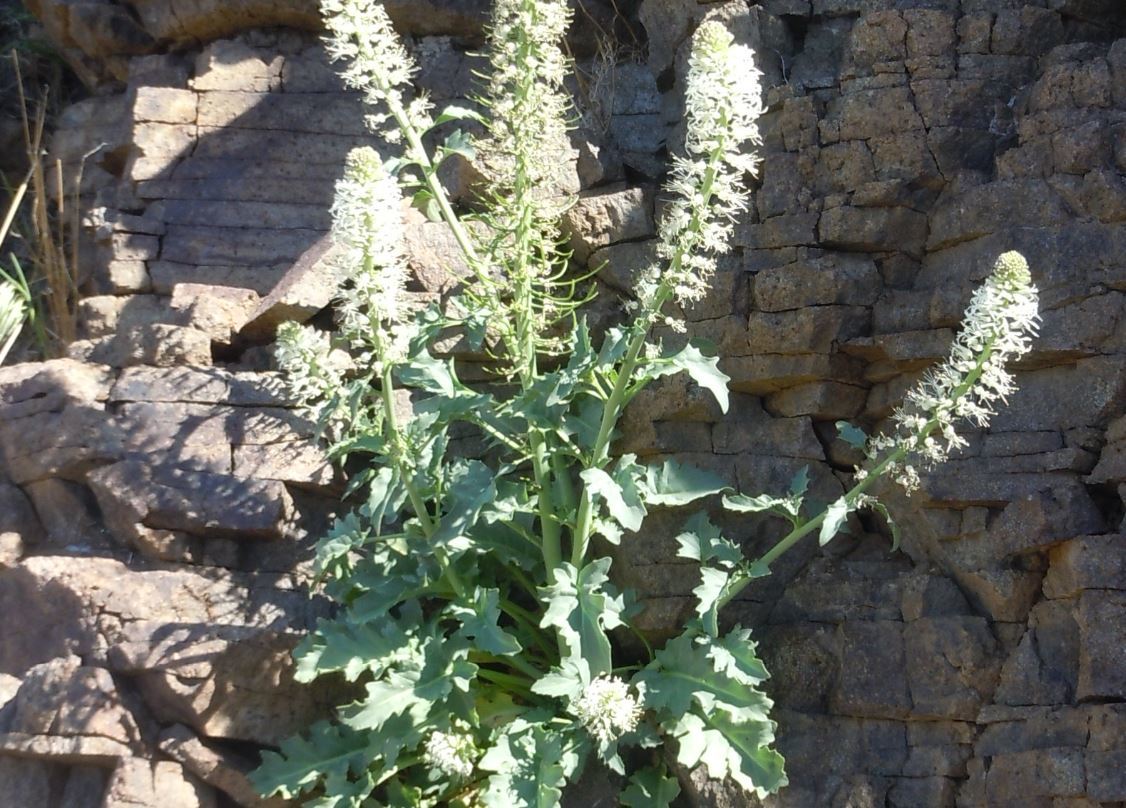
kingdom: Plantae
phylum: Tracheophyta
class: Magnoliopsida
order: Brassicales
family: Brassicaceae
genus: Thelypodium
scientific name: Thelypodium laciniatum
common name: Cut-leaved thelypody
